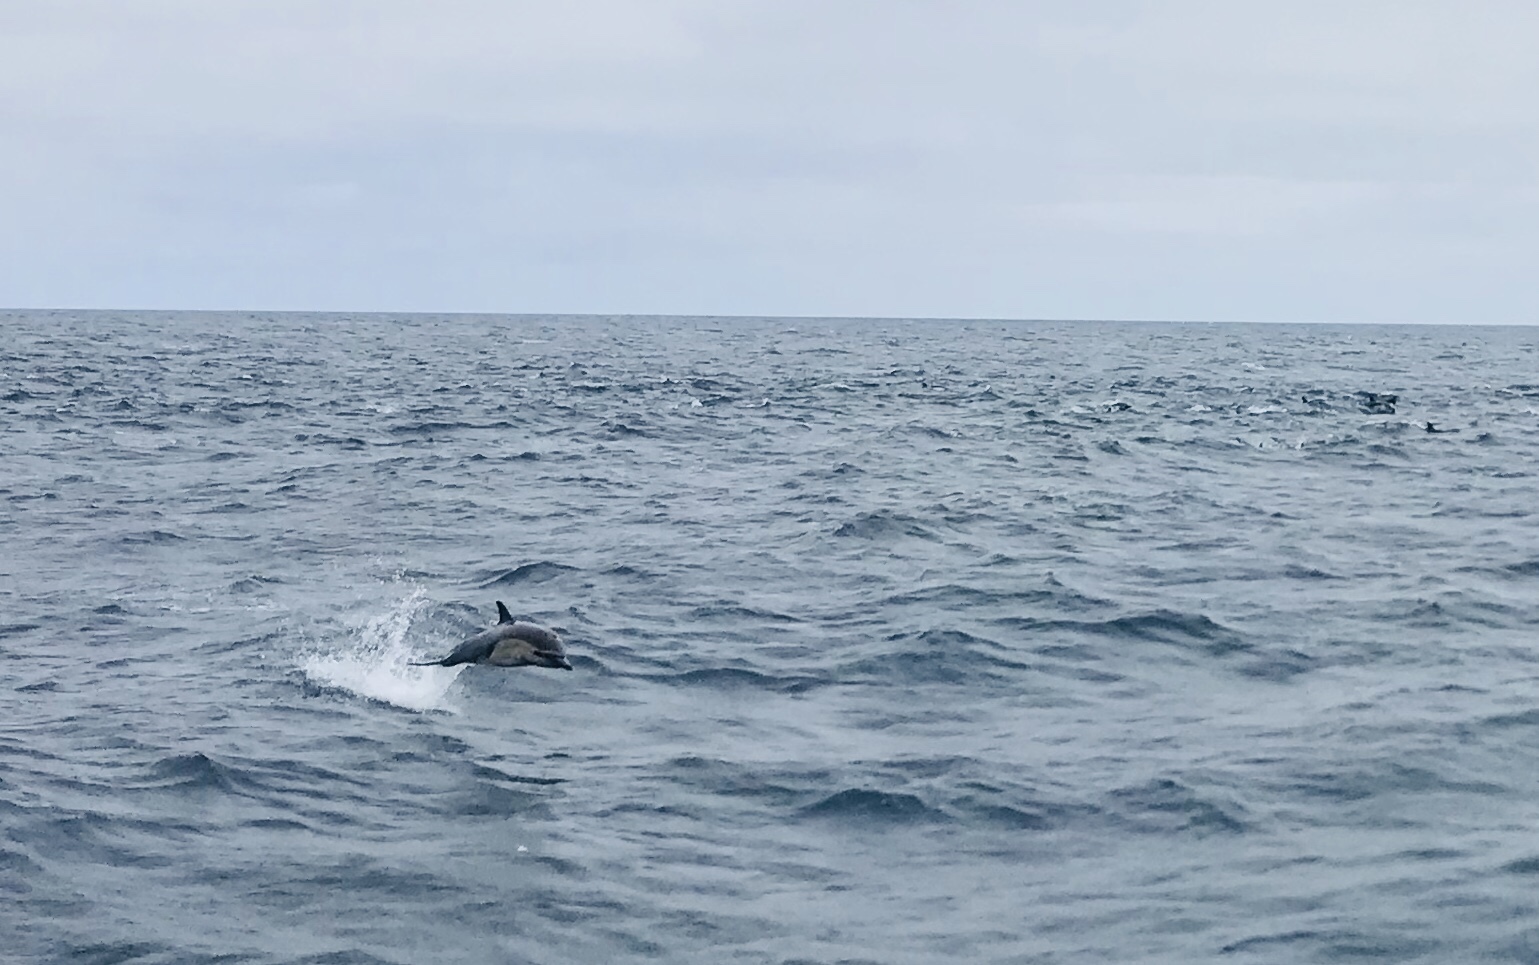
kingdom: Animalia
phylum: Chordata
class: Mammalia
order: Cetacea
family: Delphinidae
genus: Delphinus
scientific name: Delphinus delphis
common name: Common dolphin
